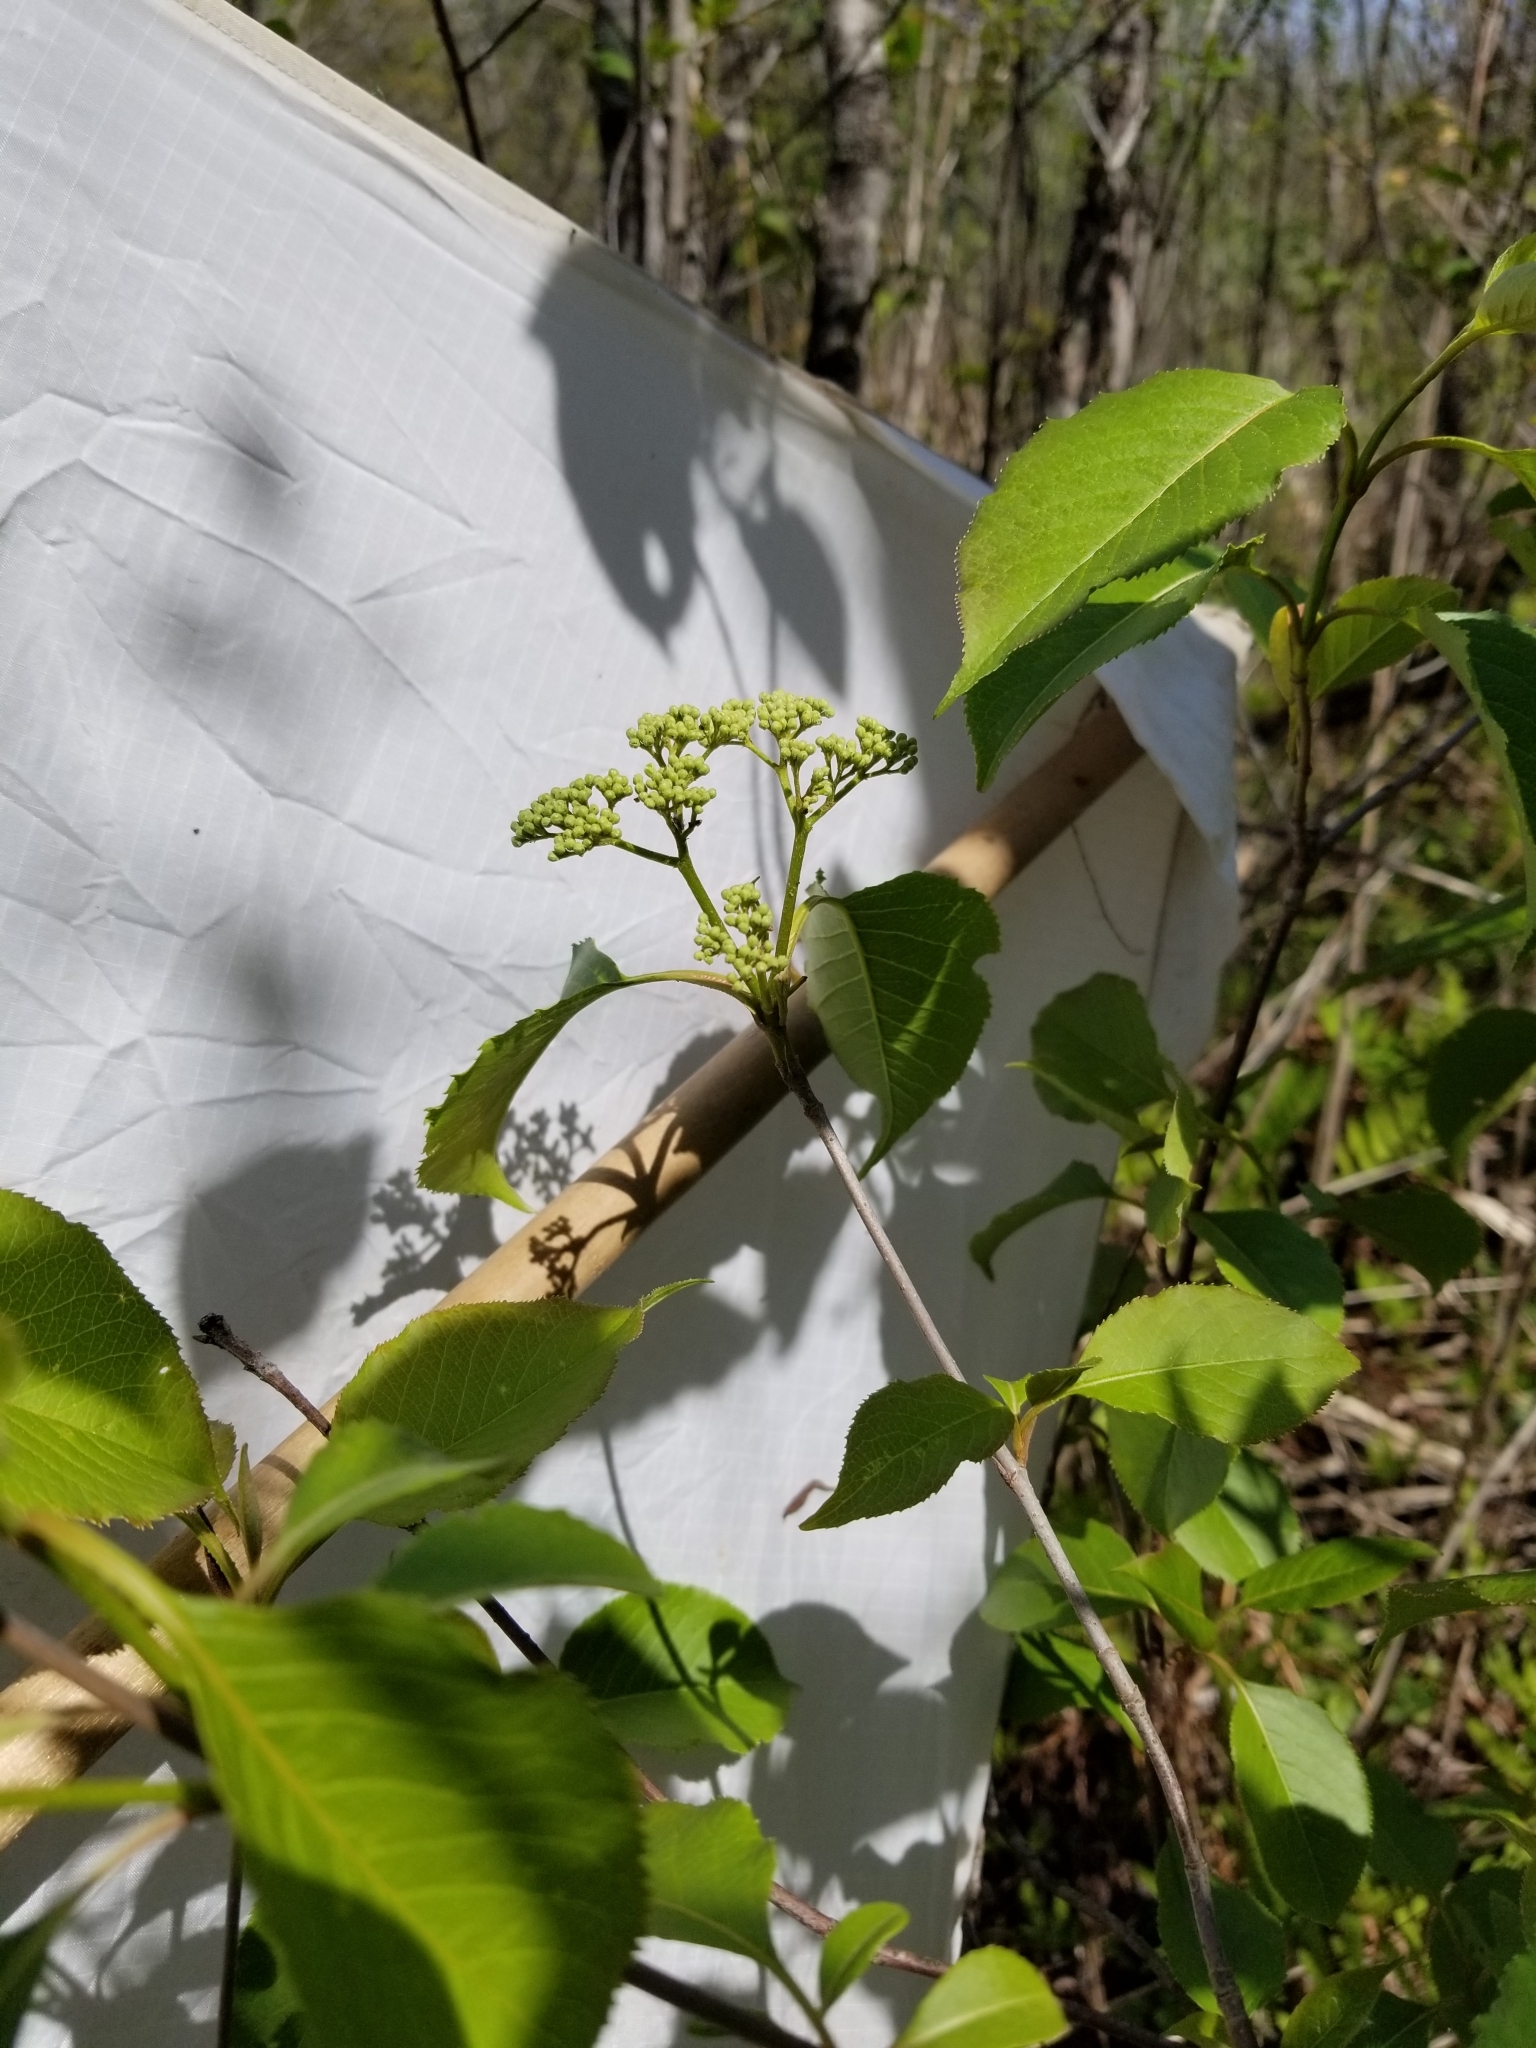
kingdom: Plantae
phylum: Tracheophyta
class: Magnoliopsida
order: Dipsacales
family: Viburnaceae
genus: Viburnum
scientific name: Viburnum lentago
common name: Black haw
